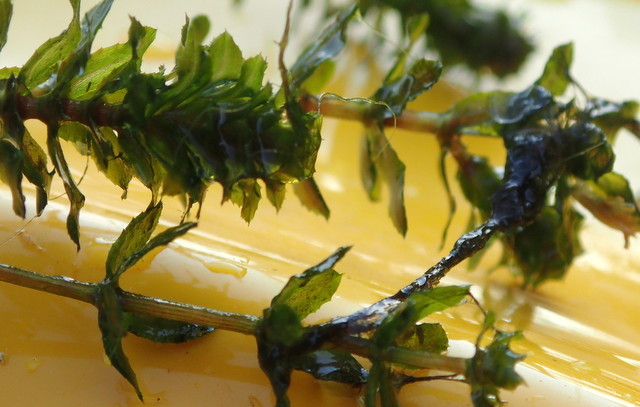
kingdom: Plantae
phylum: Tracheophyta
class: Liliopsida
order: Alismatales
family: Hydrocharitaceae
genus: Hydrilla
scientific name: Hydrilla verticillata
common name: Florida-elodea
